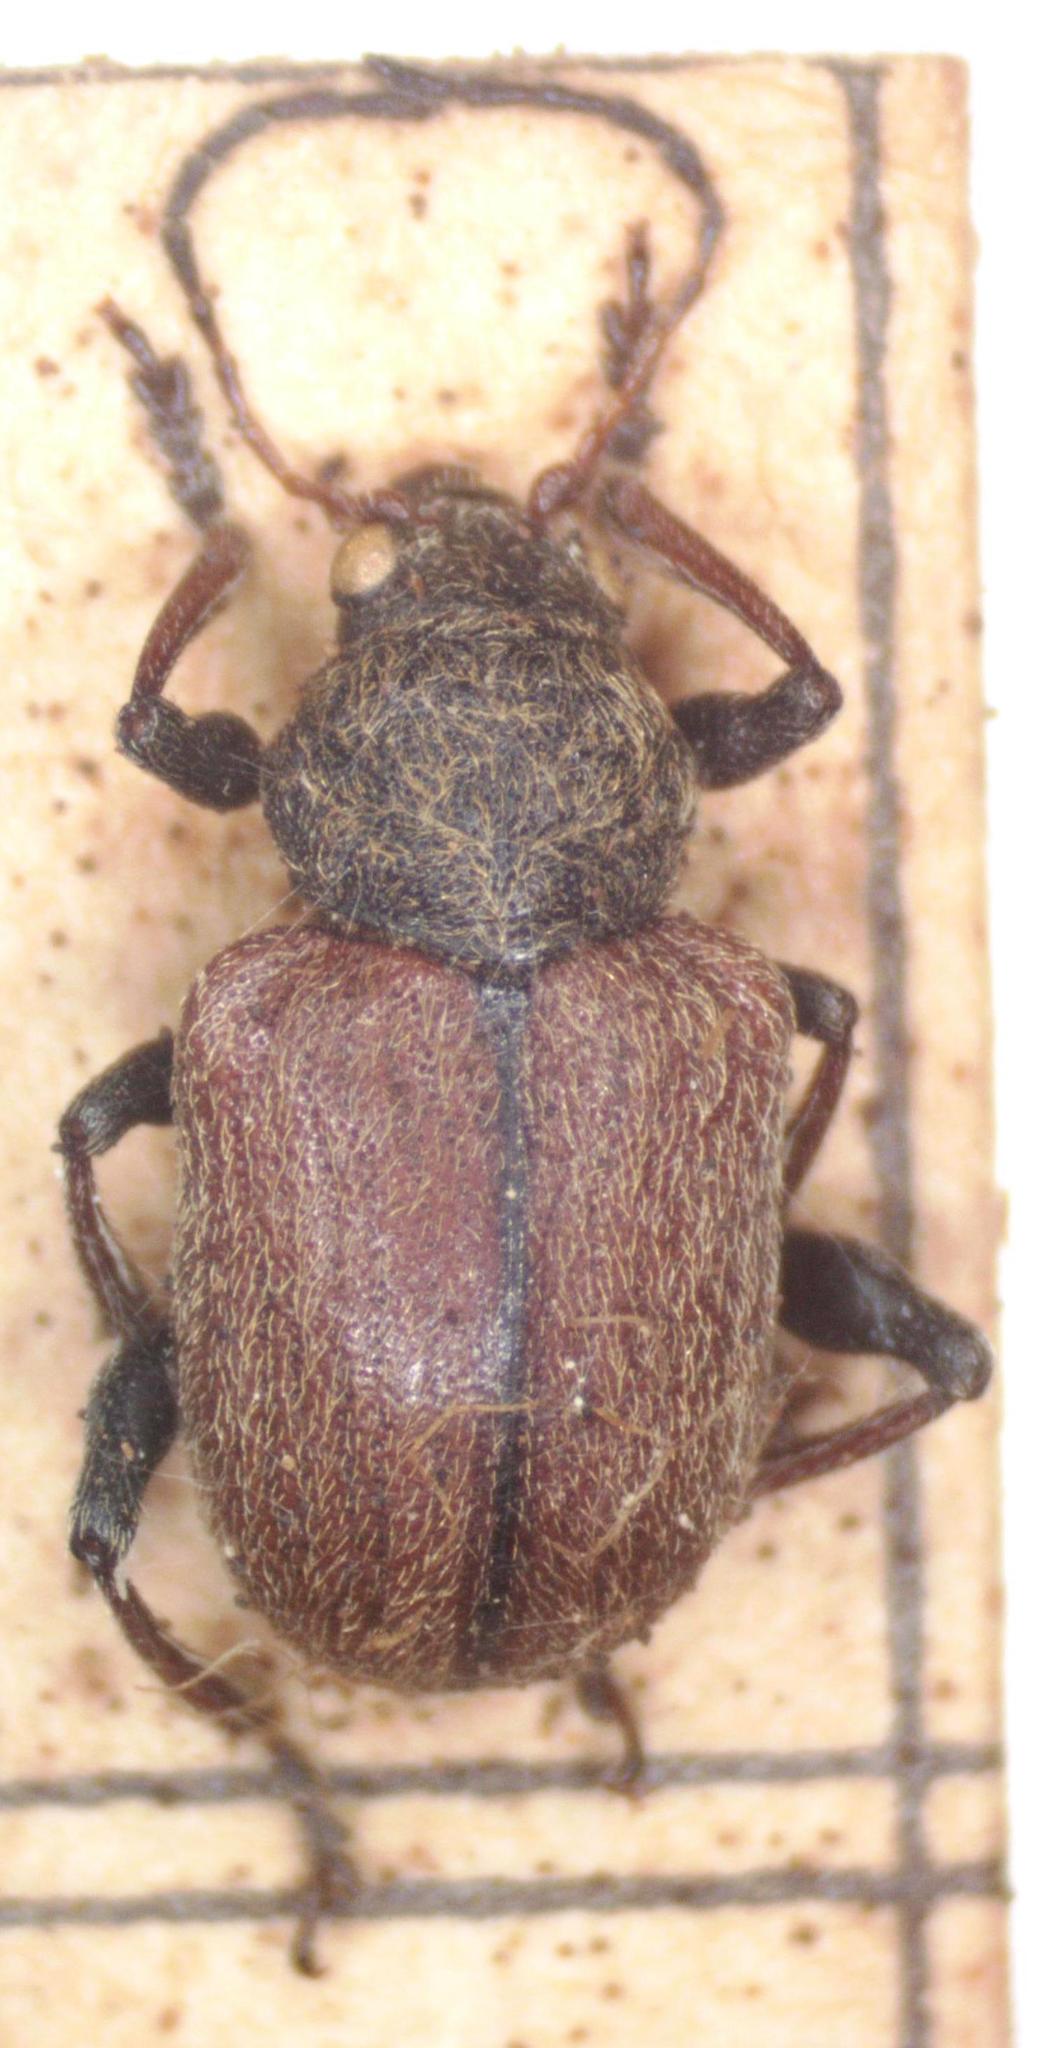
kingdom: Animalia
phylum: Arthropoda
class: Insecta
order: Coleoptera
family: Chrysomelidae
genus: Bromius
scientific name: Bromius obscurus
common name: Western grape rootworm
